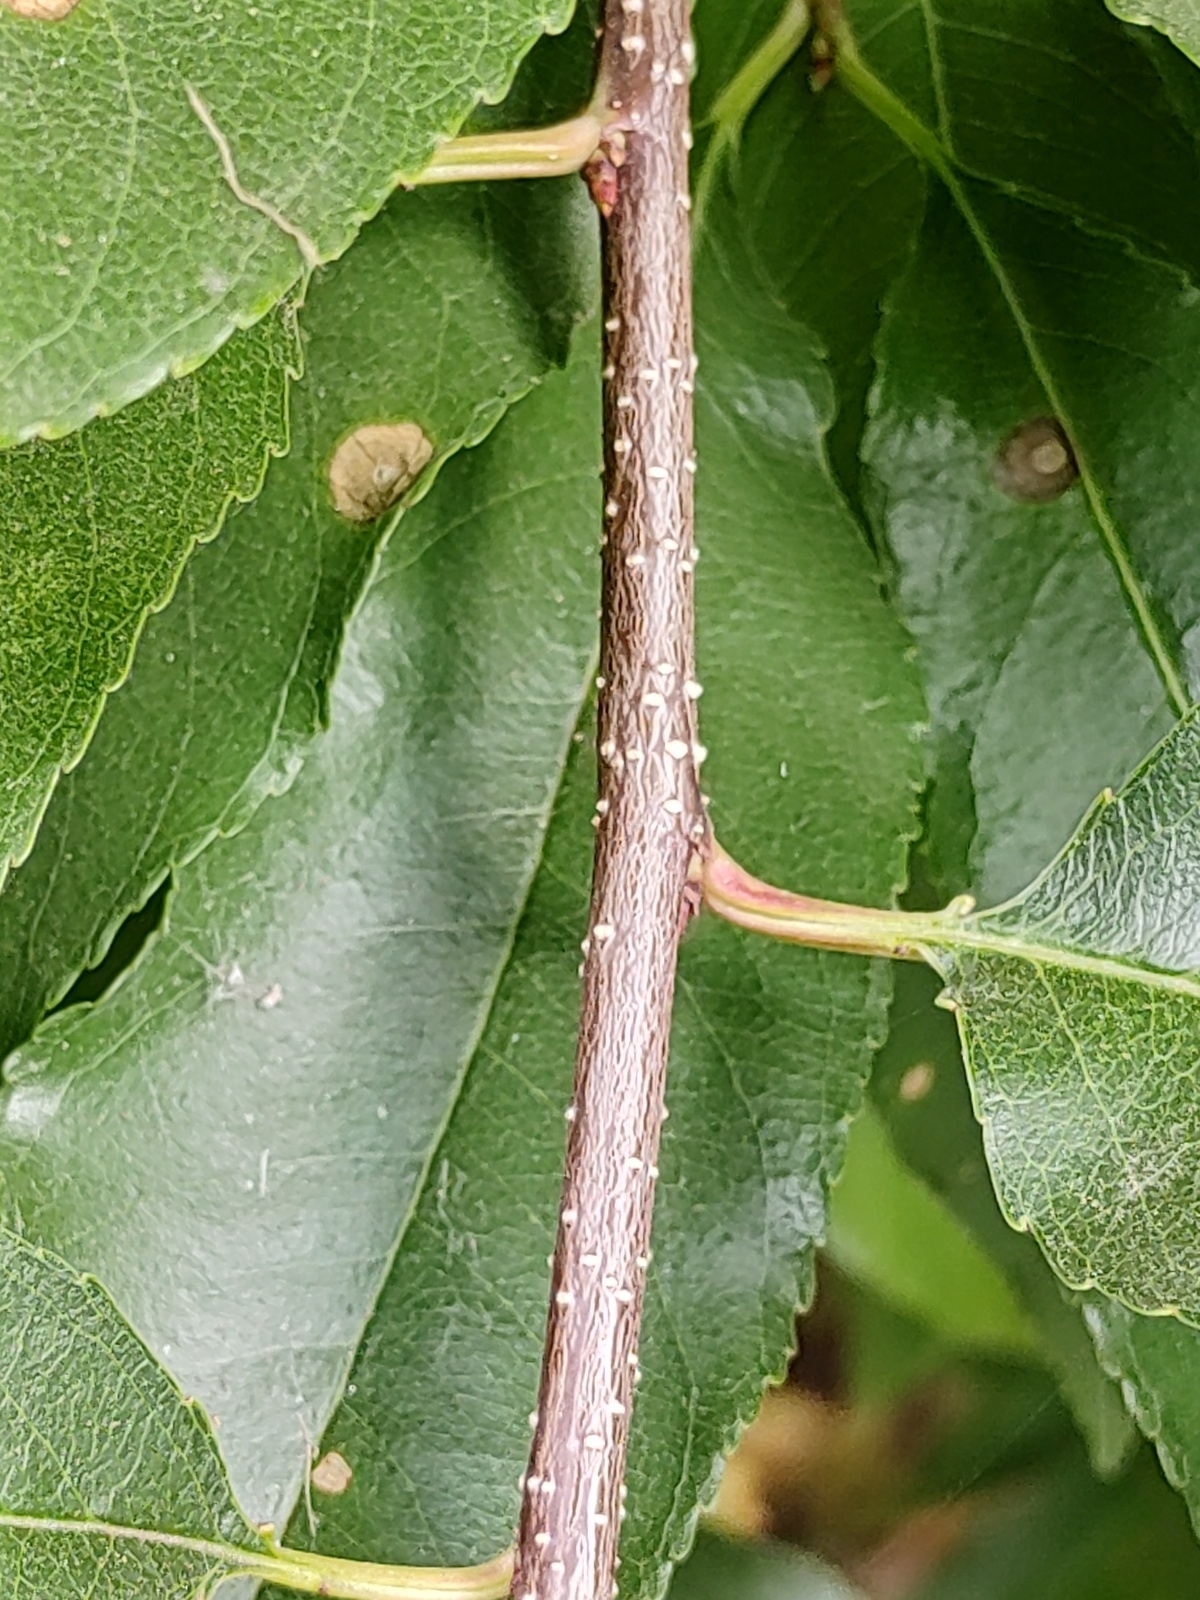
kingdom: Plantae
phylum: Tracheophyta
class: Magnoliopsida
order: Rosales
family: Rosaceae
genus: Prunus
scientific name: Prunus serotina
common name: Black cherry
